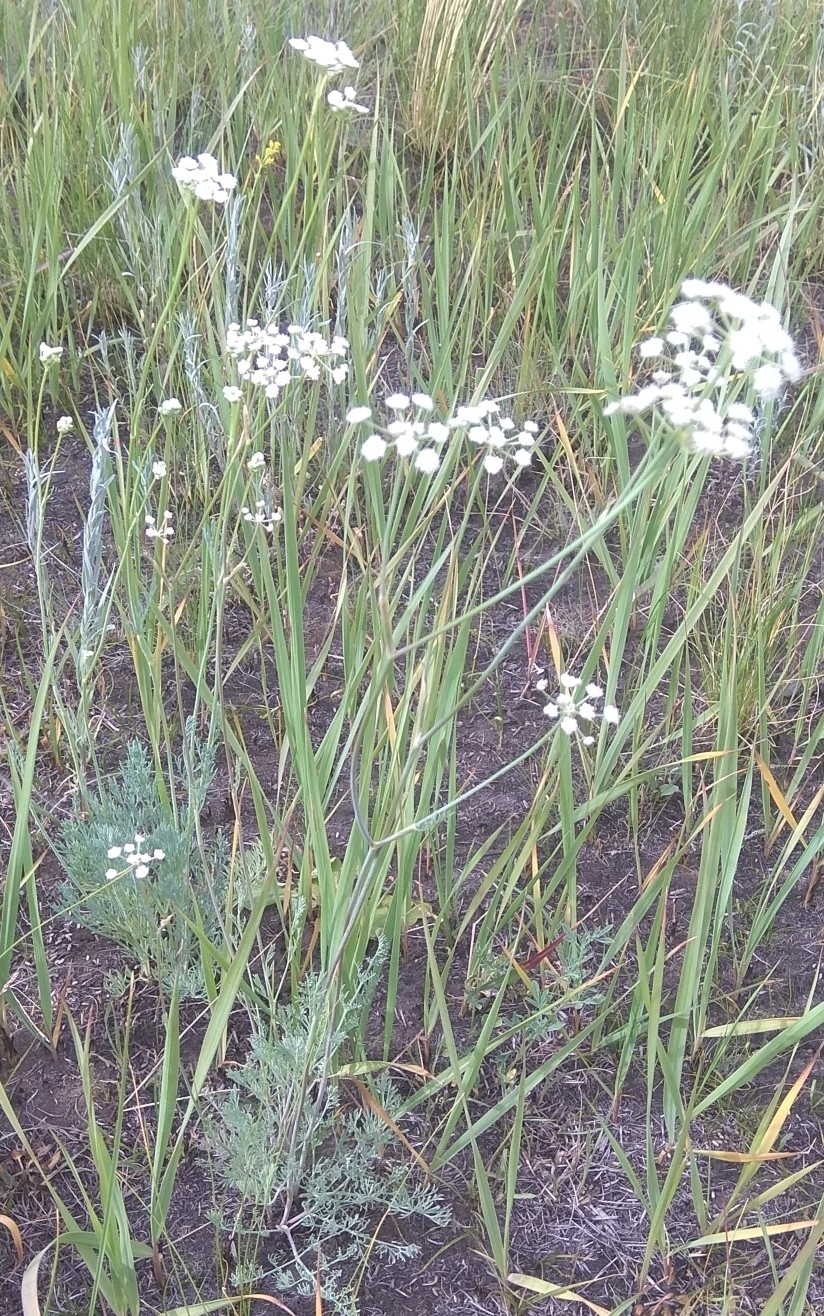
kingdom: Plantae
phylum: Tracheophyta
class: Magnoliopsida
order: Apiales
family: Apiaceae
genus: Seseli
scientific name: Seseli ledebourii
